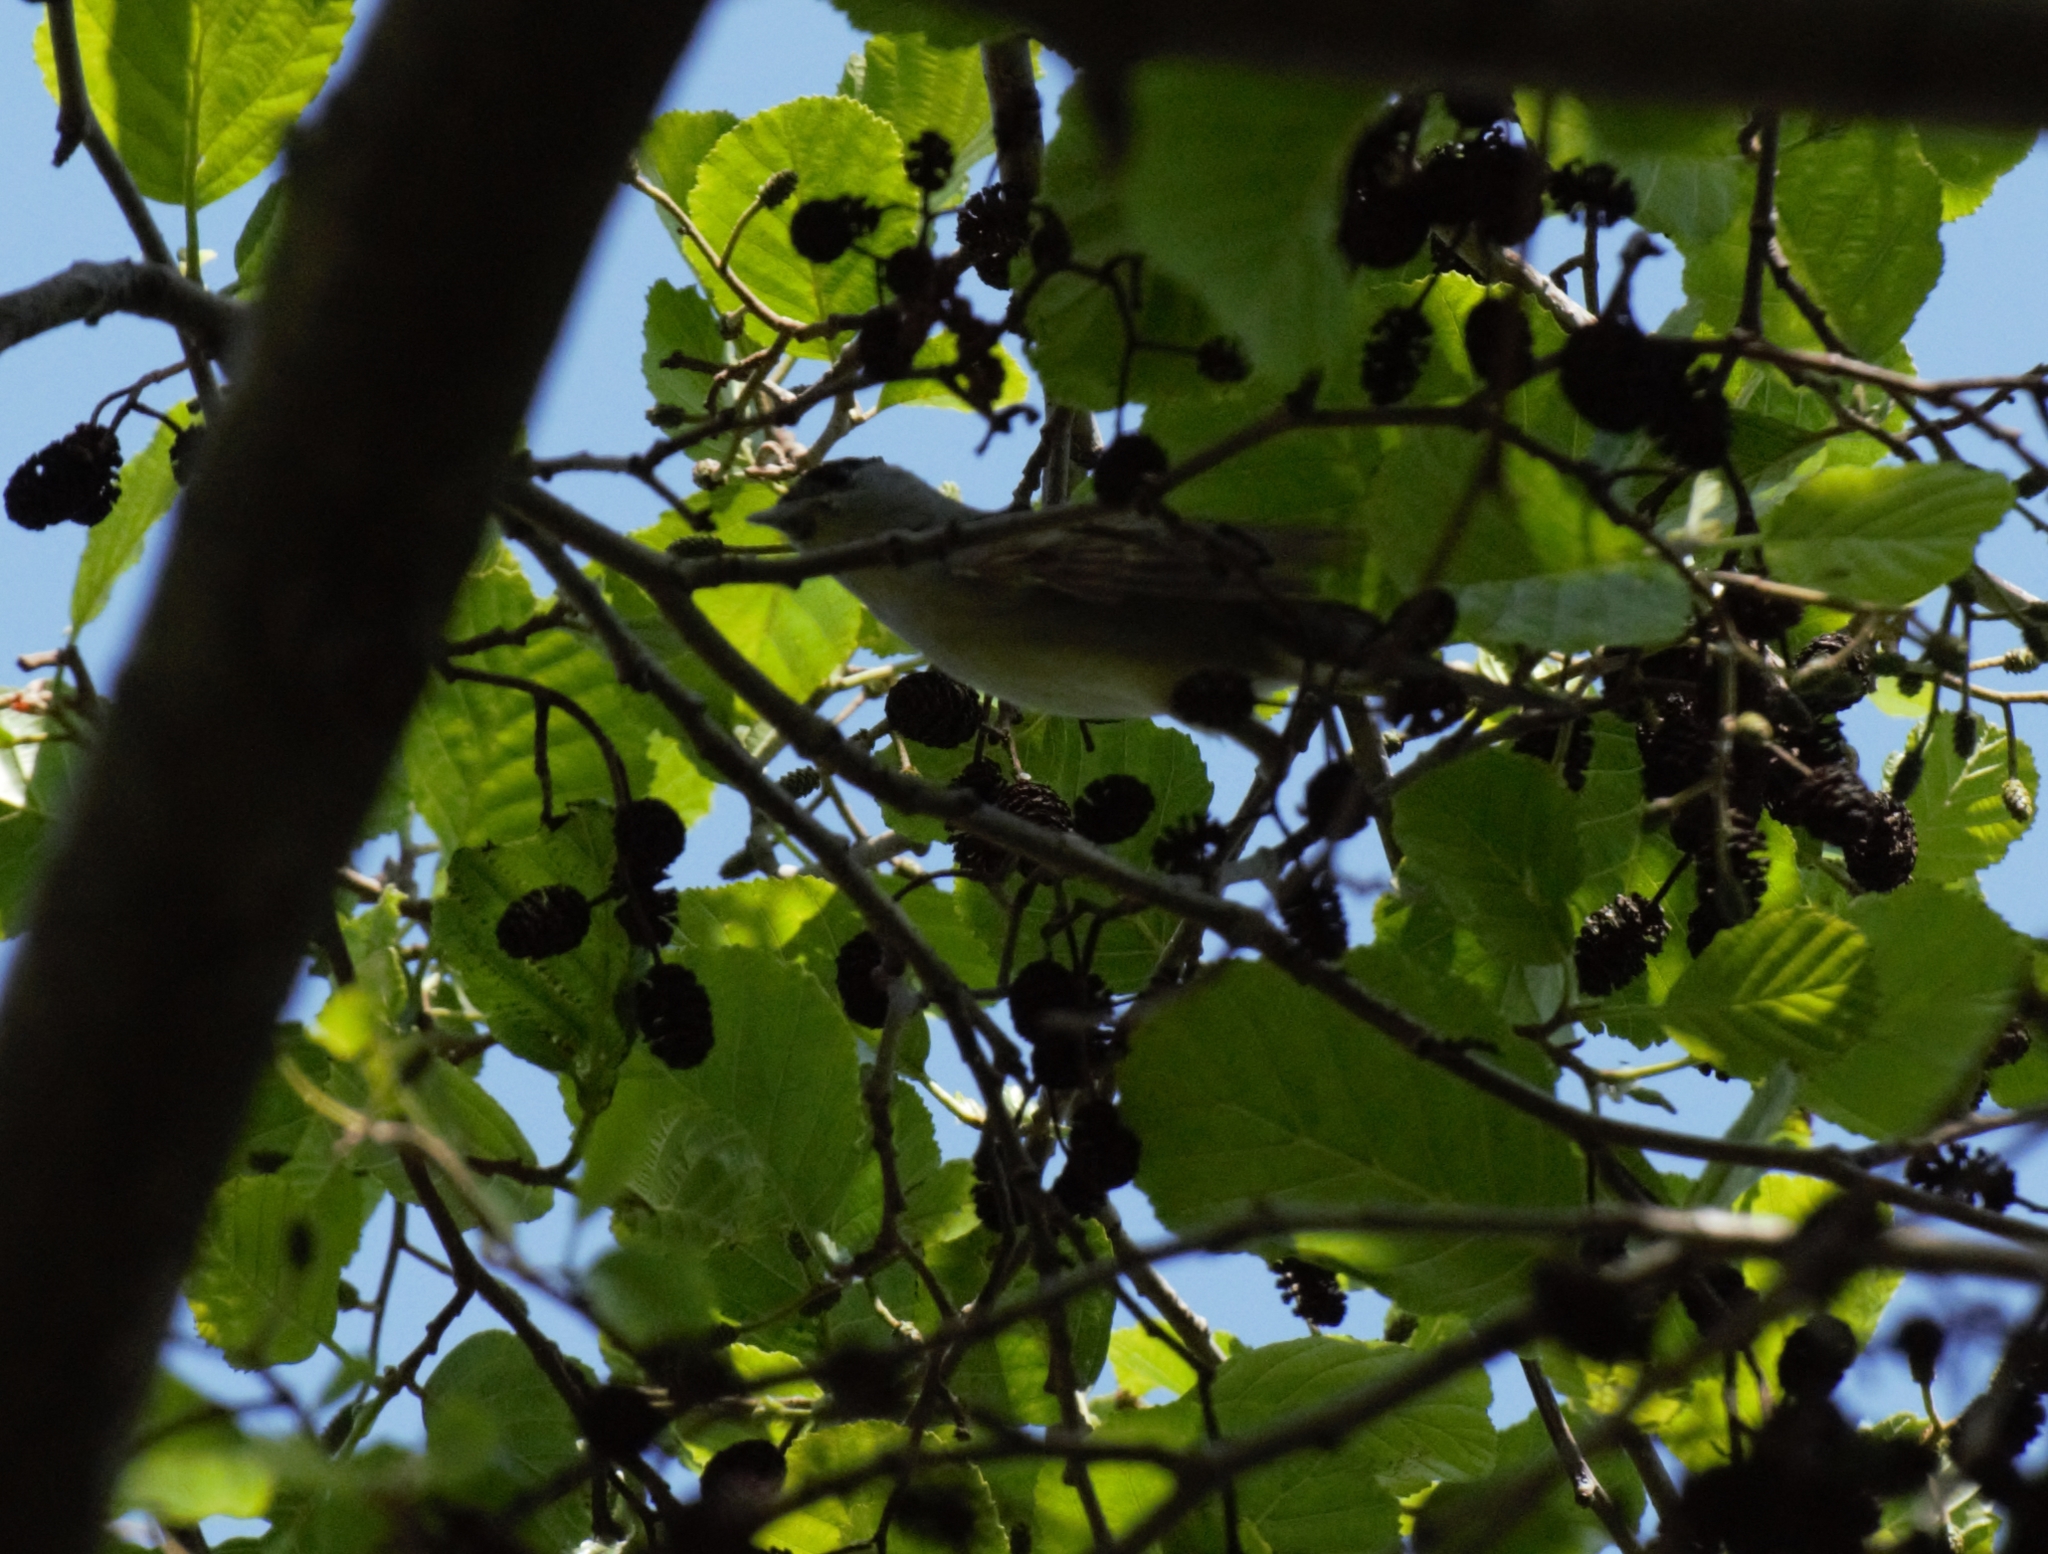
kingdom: Animalia
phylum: Chordata
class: Aves
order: Passeriformes
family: Sylviidae
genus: Sylvia
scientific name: Sylvia atricapilla
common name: Eurasian blackcap
